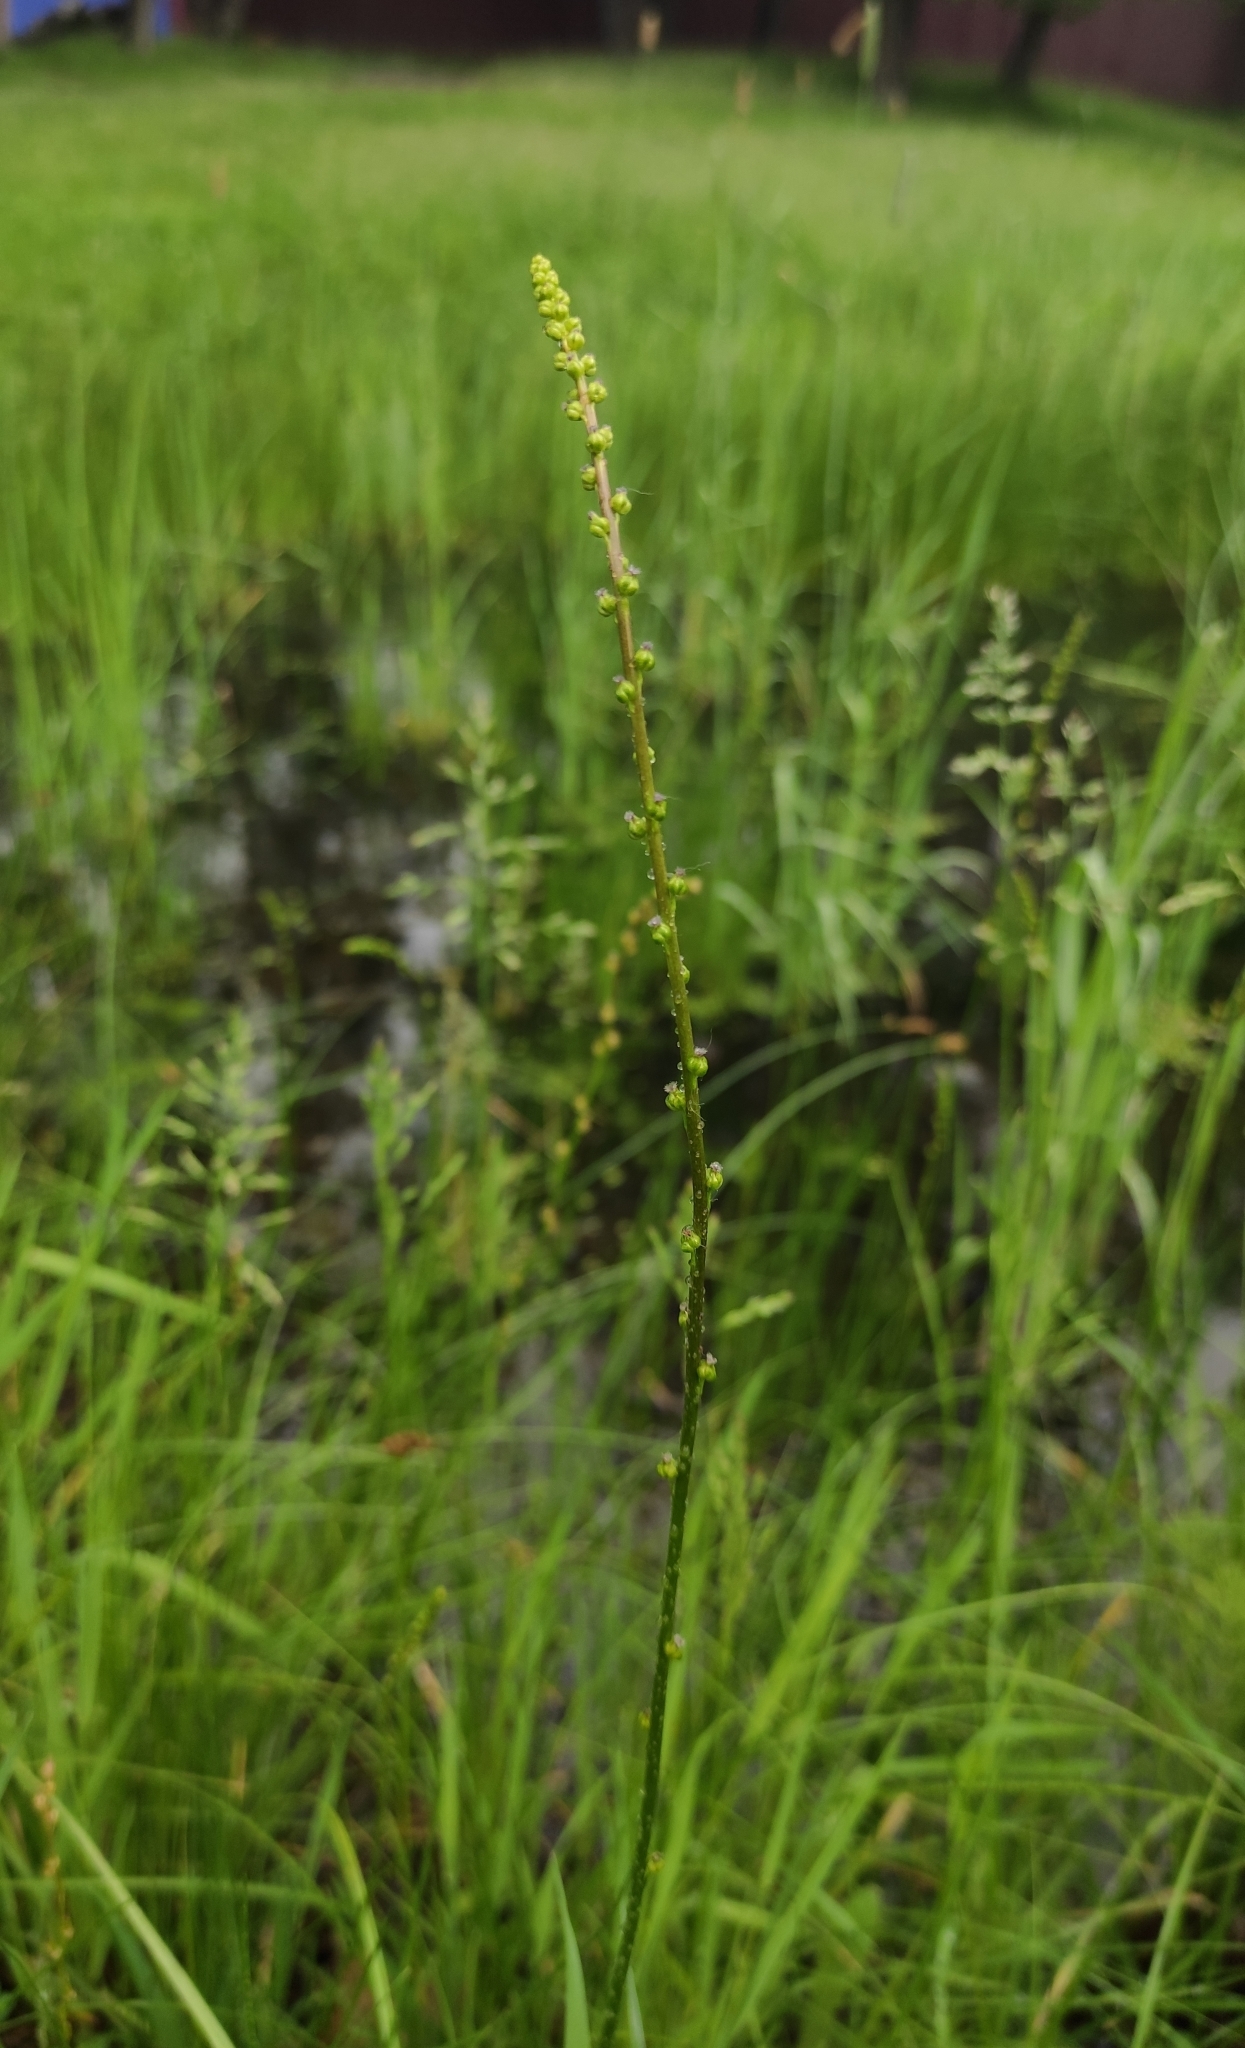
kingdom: Plantae
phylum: Tracheophyta
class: Liliopsida
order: Alismatales
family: Juncaginaceae
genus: Triglochin
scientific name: Triglochin palustris
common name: Marsh arrowgrass
